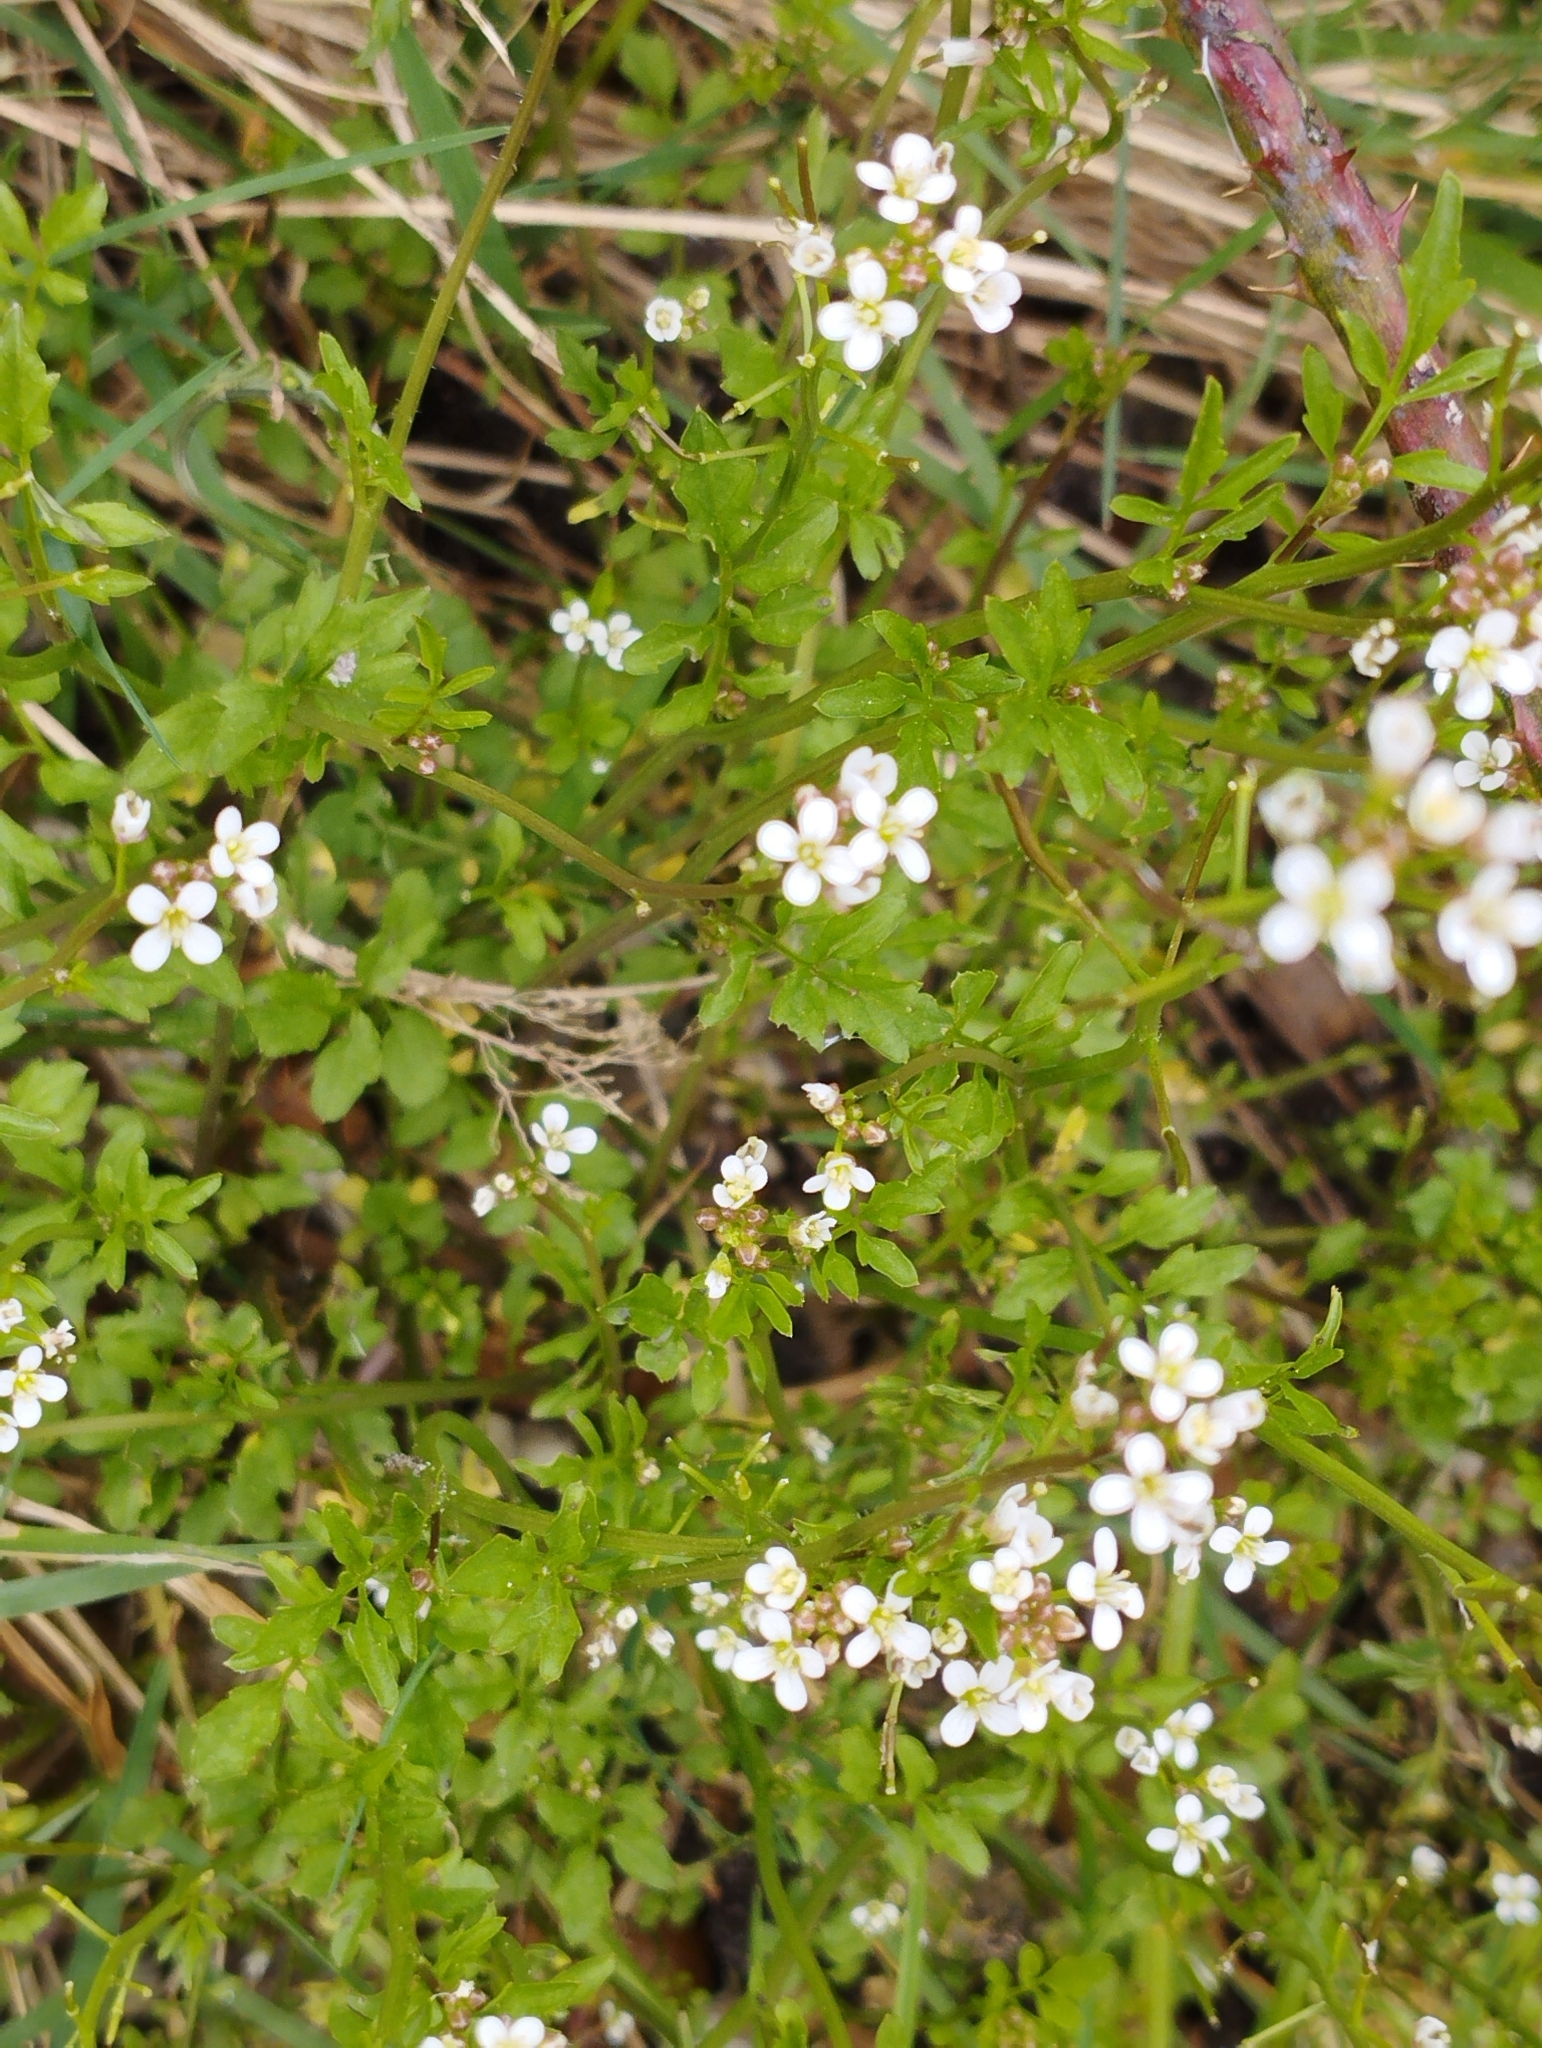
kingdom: Plantae
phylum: Tracheophyta
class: Magnoliopsida
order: Brassicales
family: Brassicaceae
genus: Cardamine
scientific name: Cardamine occulta
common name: Asian wavy bittercress
